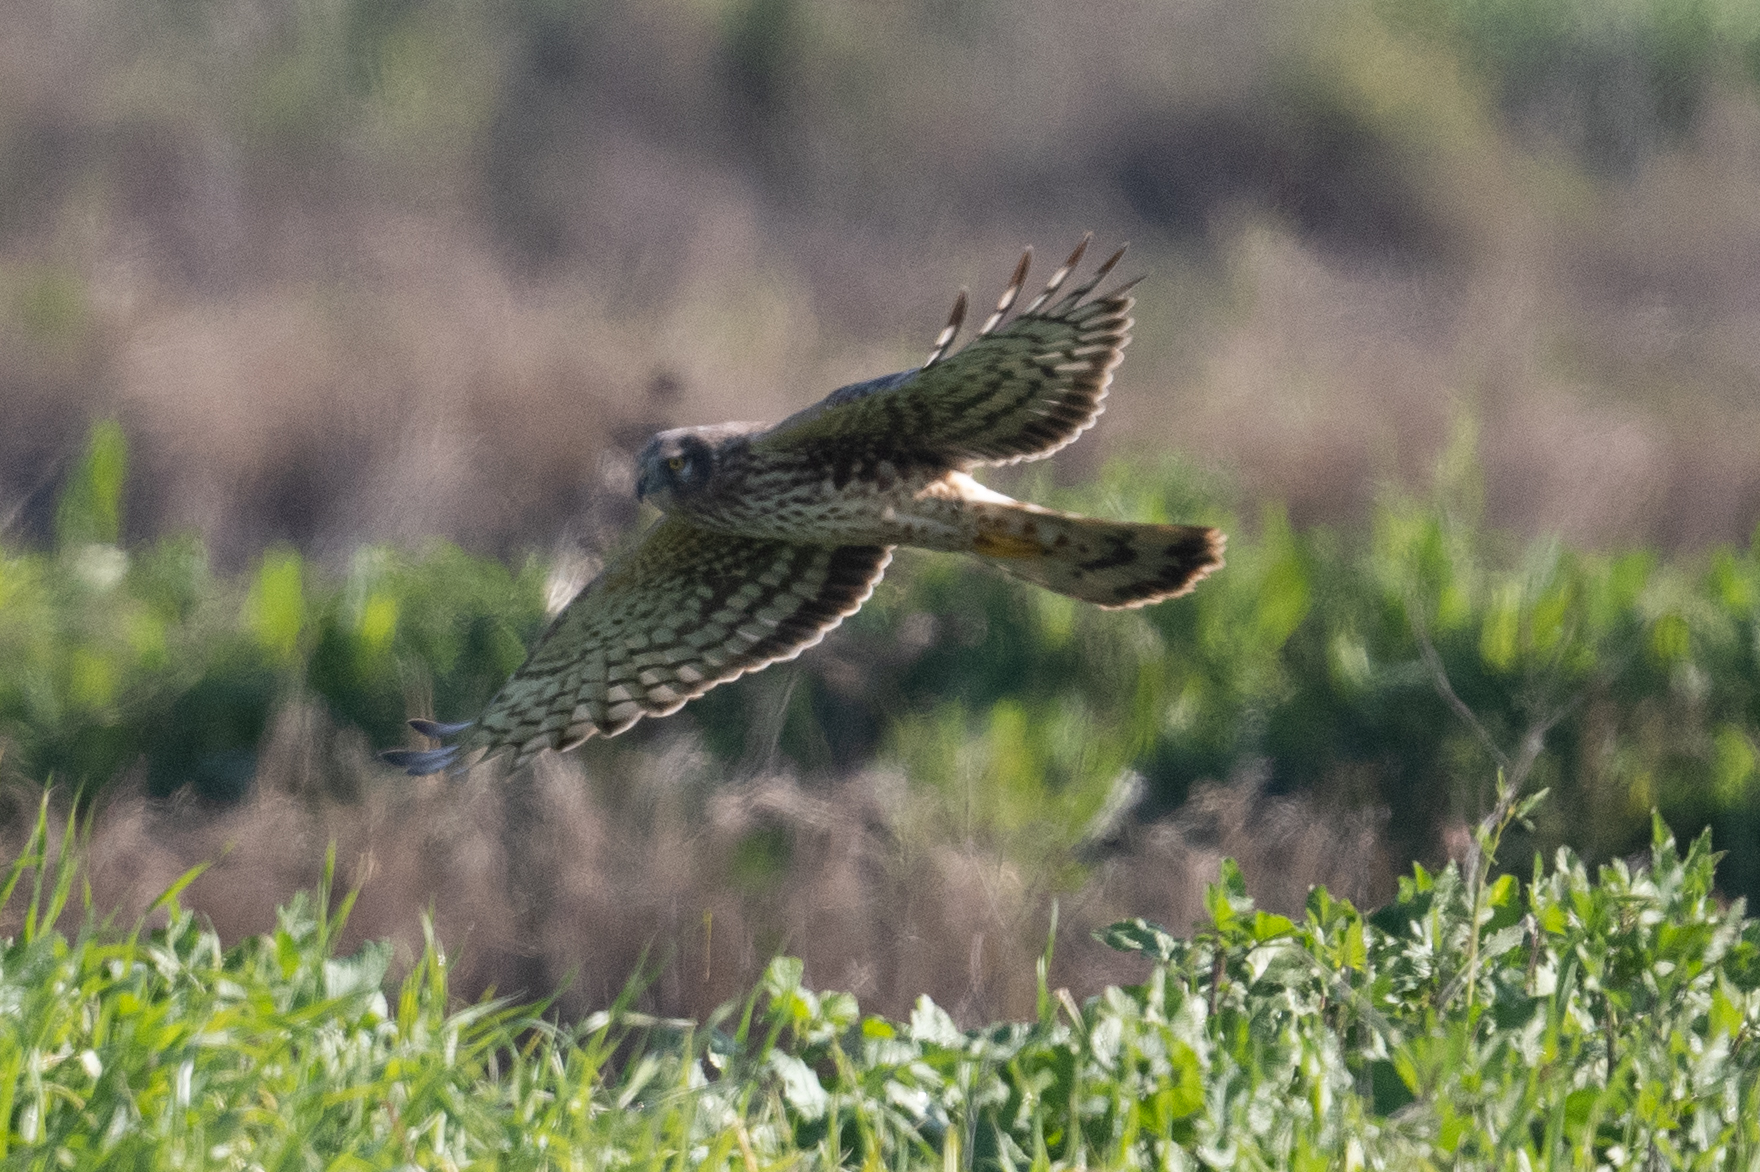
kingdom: Animalia
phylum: Chordata
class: Aves
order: Accipitriformes
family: Accipitridae
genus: Circus
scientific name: Circus cyaneus
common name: Hen harrier
